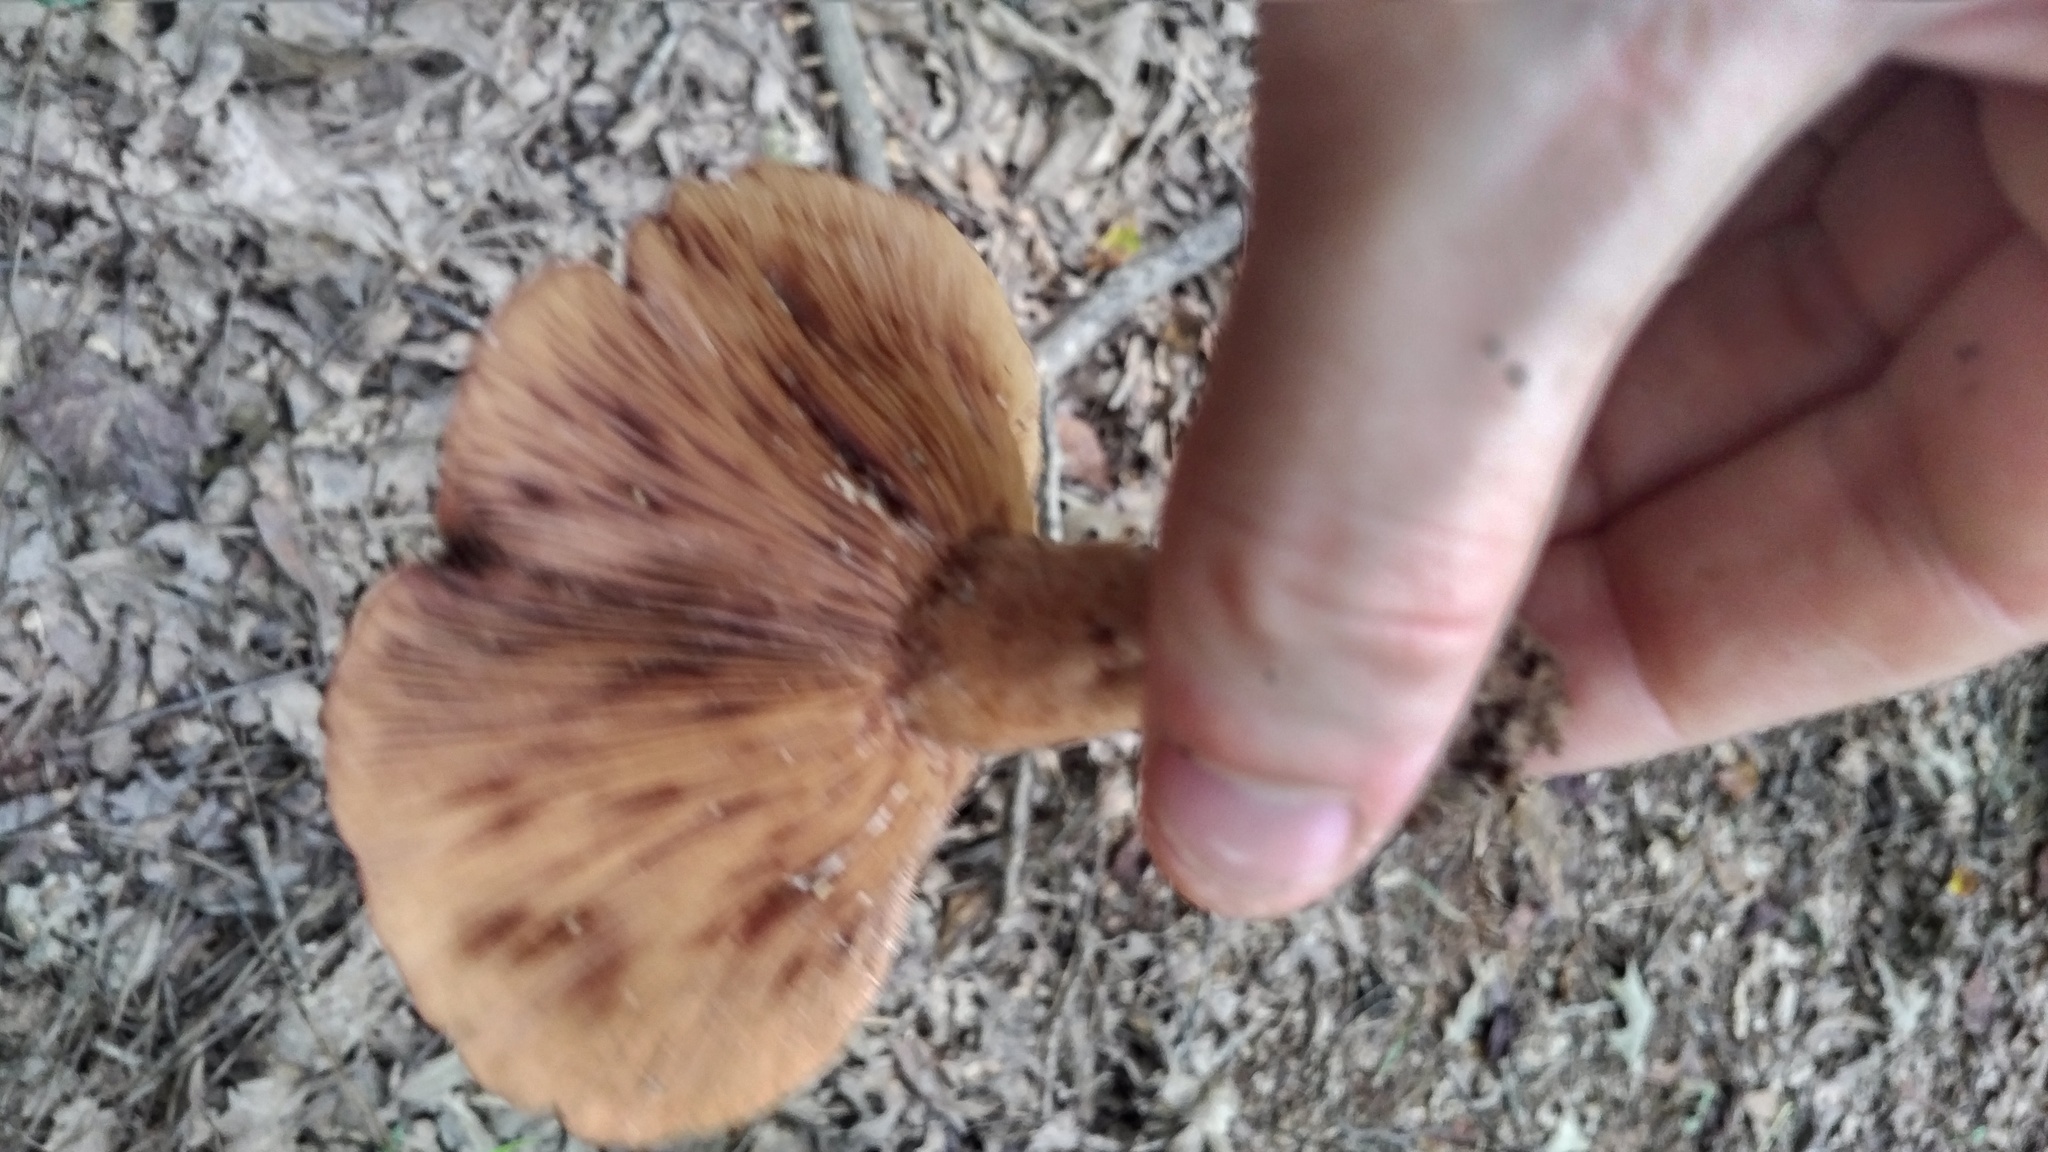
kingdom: Fungi
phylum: Basidiomycota
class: Agaricomycetes
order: Russulales
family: Russulaceae
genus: Lactarius
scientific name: Lactarius peckii
